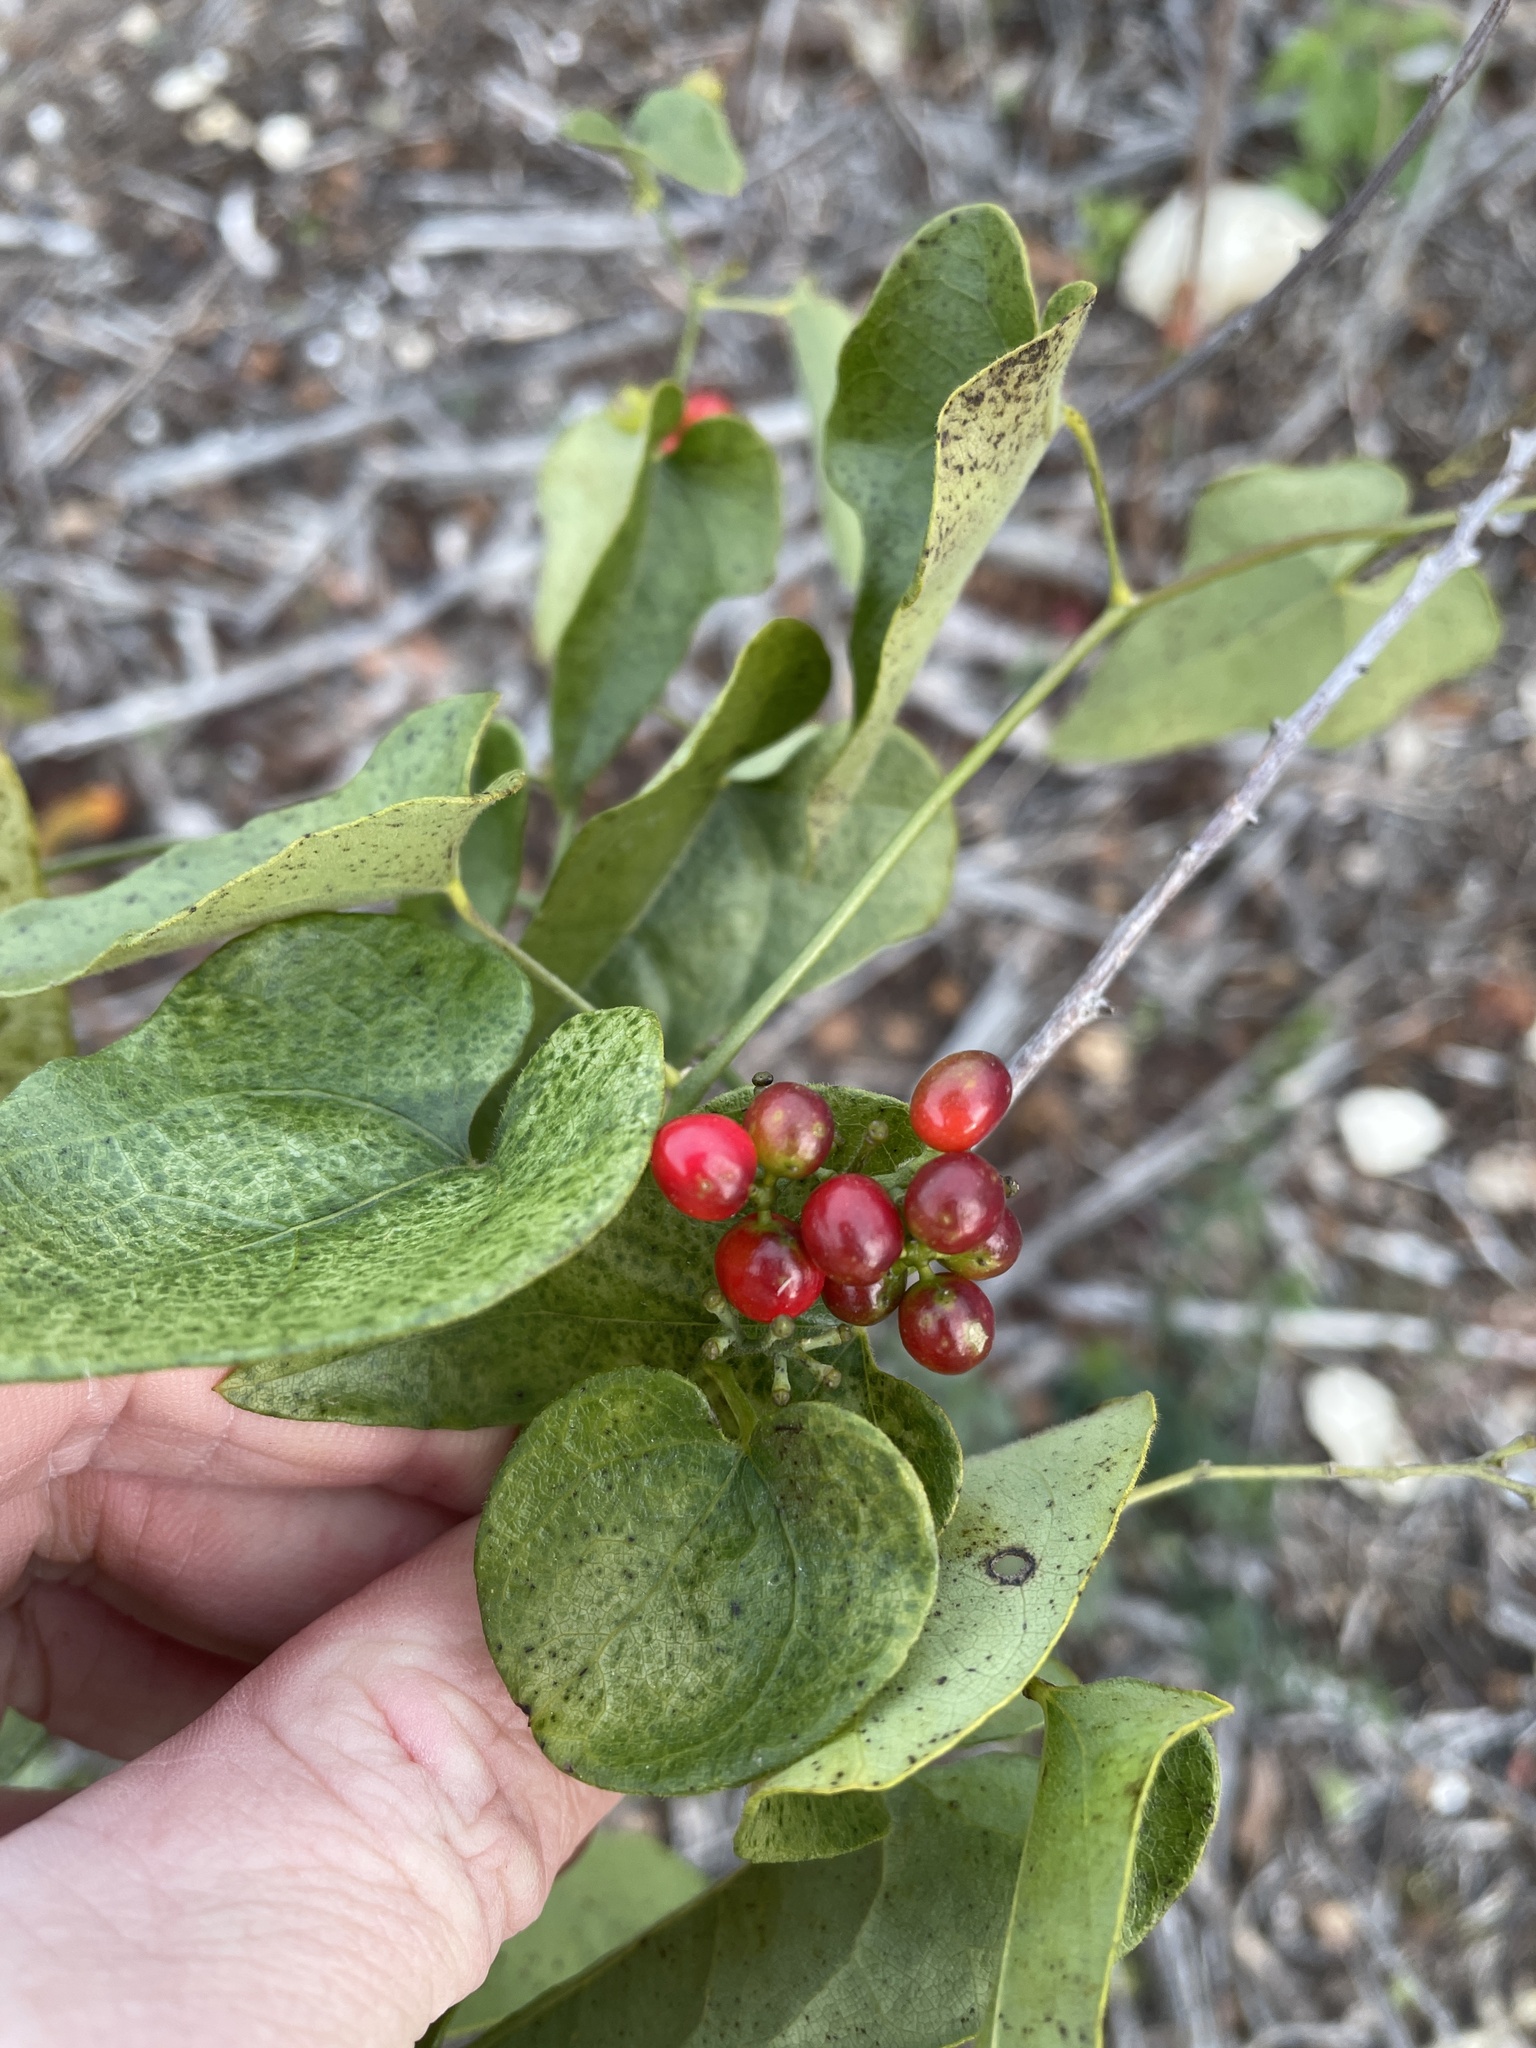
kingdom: Plantae
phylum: Tracheophyta
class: Magnoliopsida
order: Ranunculales
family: Menispermaceae
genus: Cocculus
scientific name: Cocculus carolinus
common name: Carolina moonseed
